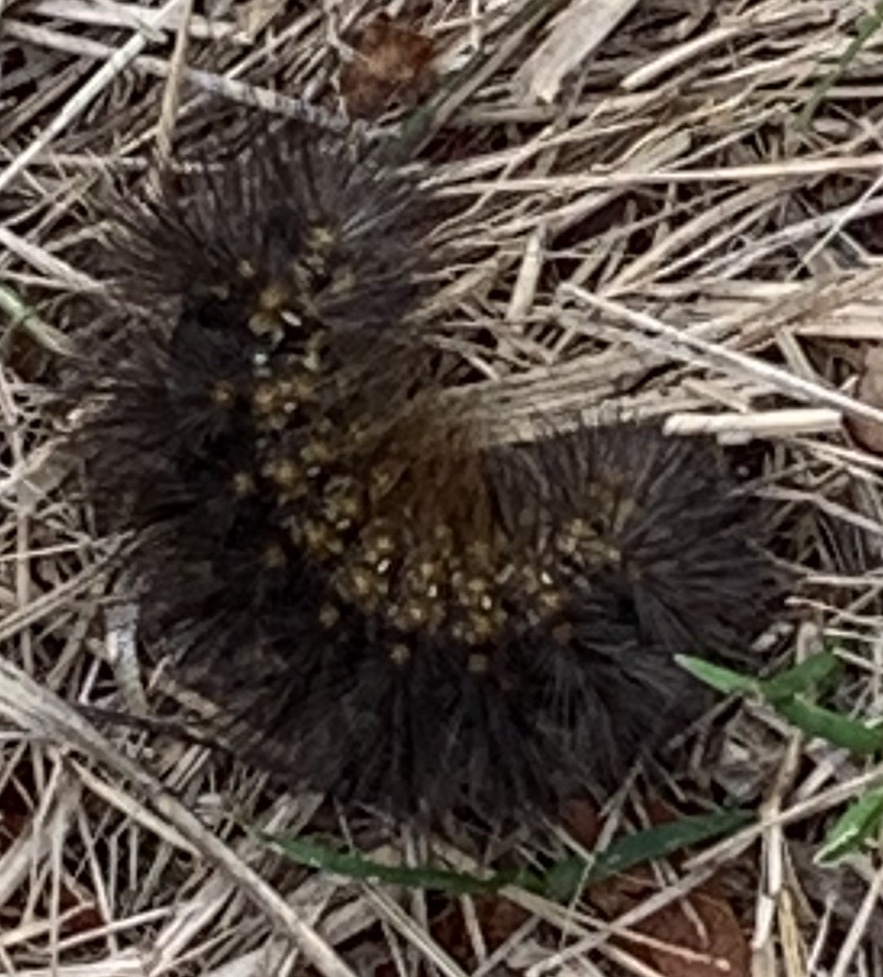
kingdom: Animalia
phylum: Arthropoda
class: Insecta
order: Lepidoptera
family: Erebidae
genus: Estigmene
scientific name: Estigmene acrea
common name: Salt marsh moth
